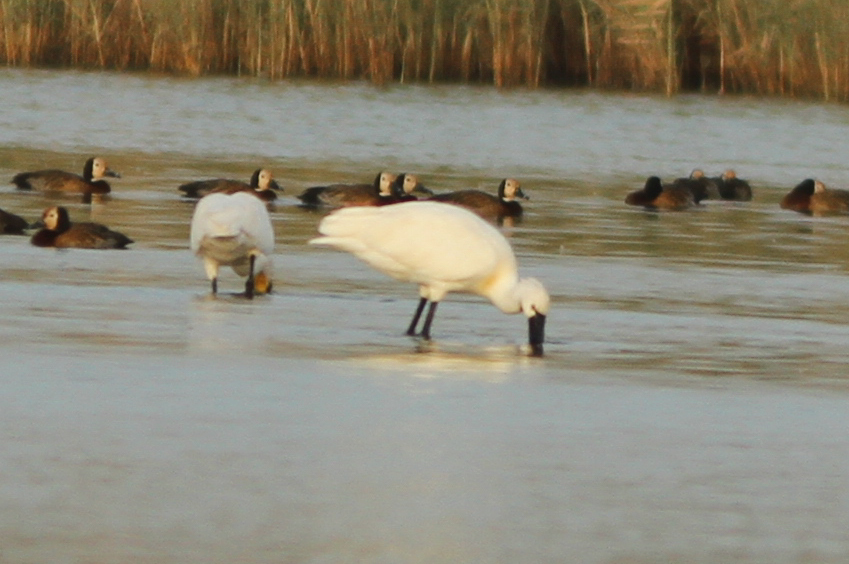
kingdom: Animalia
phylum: Chordata
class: Aves
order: Pelecaniformes
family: Threskiornithidae
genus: Platalea
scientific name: Platalea leucorodia
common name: Eurasian spoonbill
